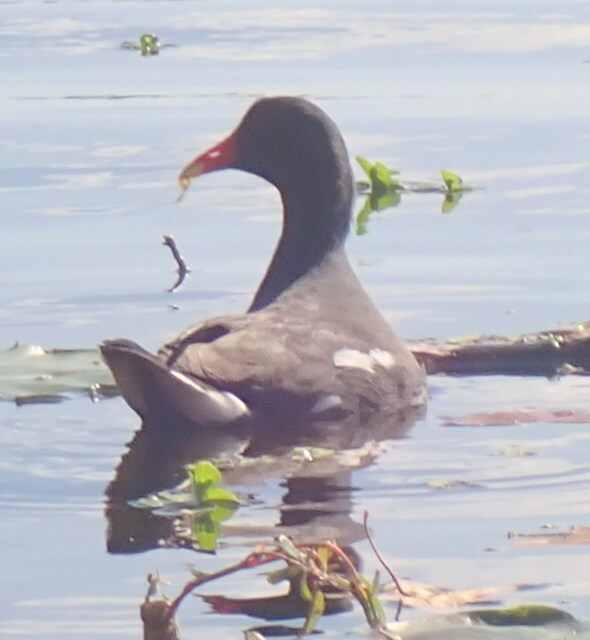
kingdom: Animalia
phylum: Chordata
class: Aves
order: Gruiformes
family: Rallidae
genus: Gallinula
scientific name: Gallinula chloropus
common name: Common moorhen
